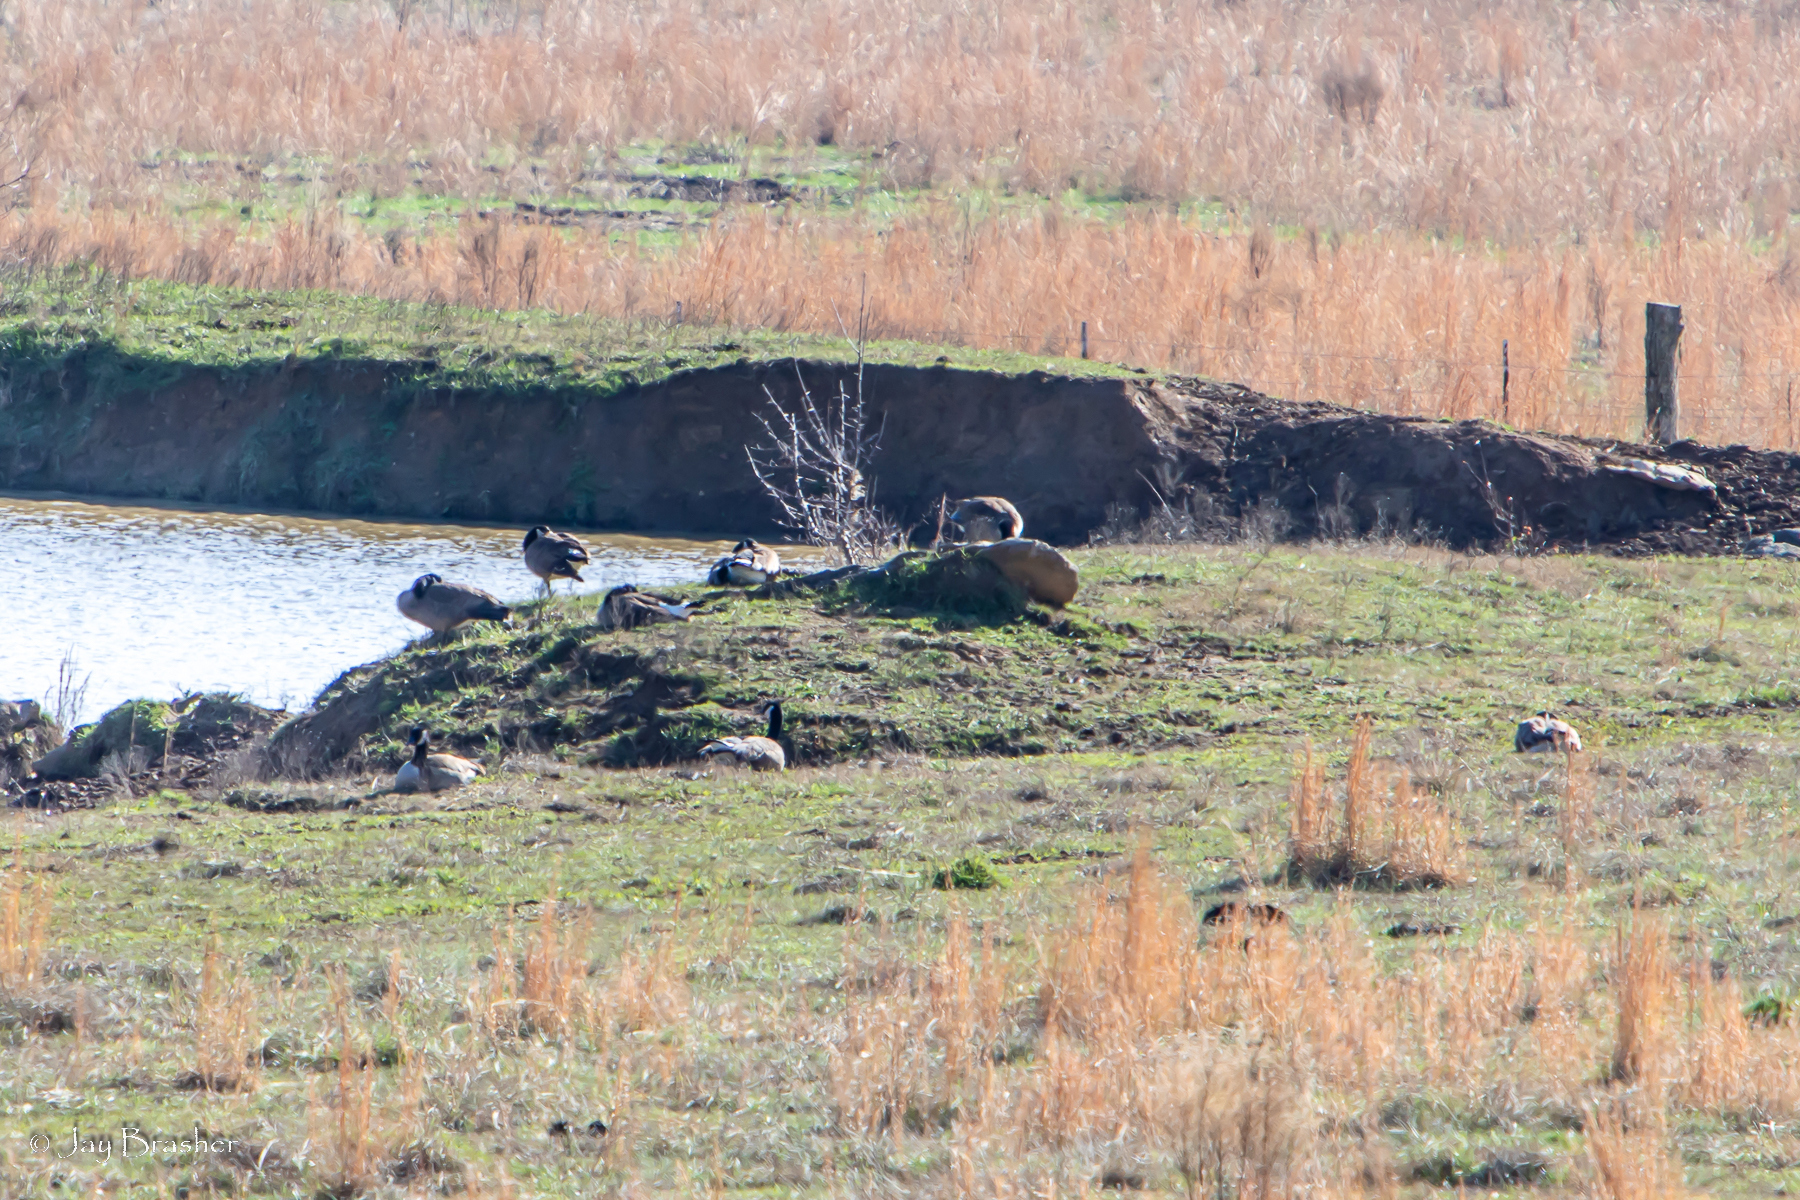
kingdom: Animalia
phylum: Chordata
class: Aves
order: Anseriformes
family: Anatidae
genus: Branta
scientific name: Branta canadensis
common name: Canada goose
